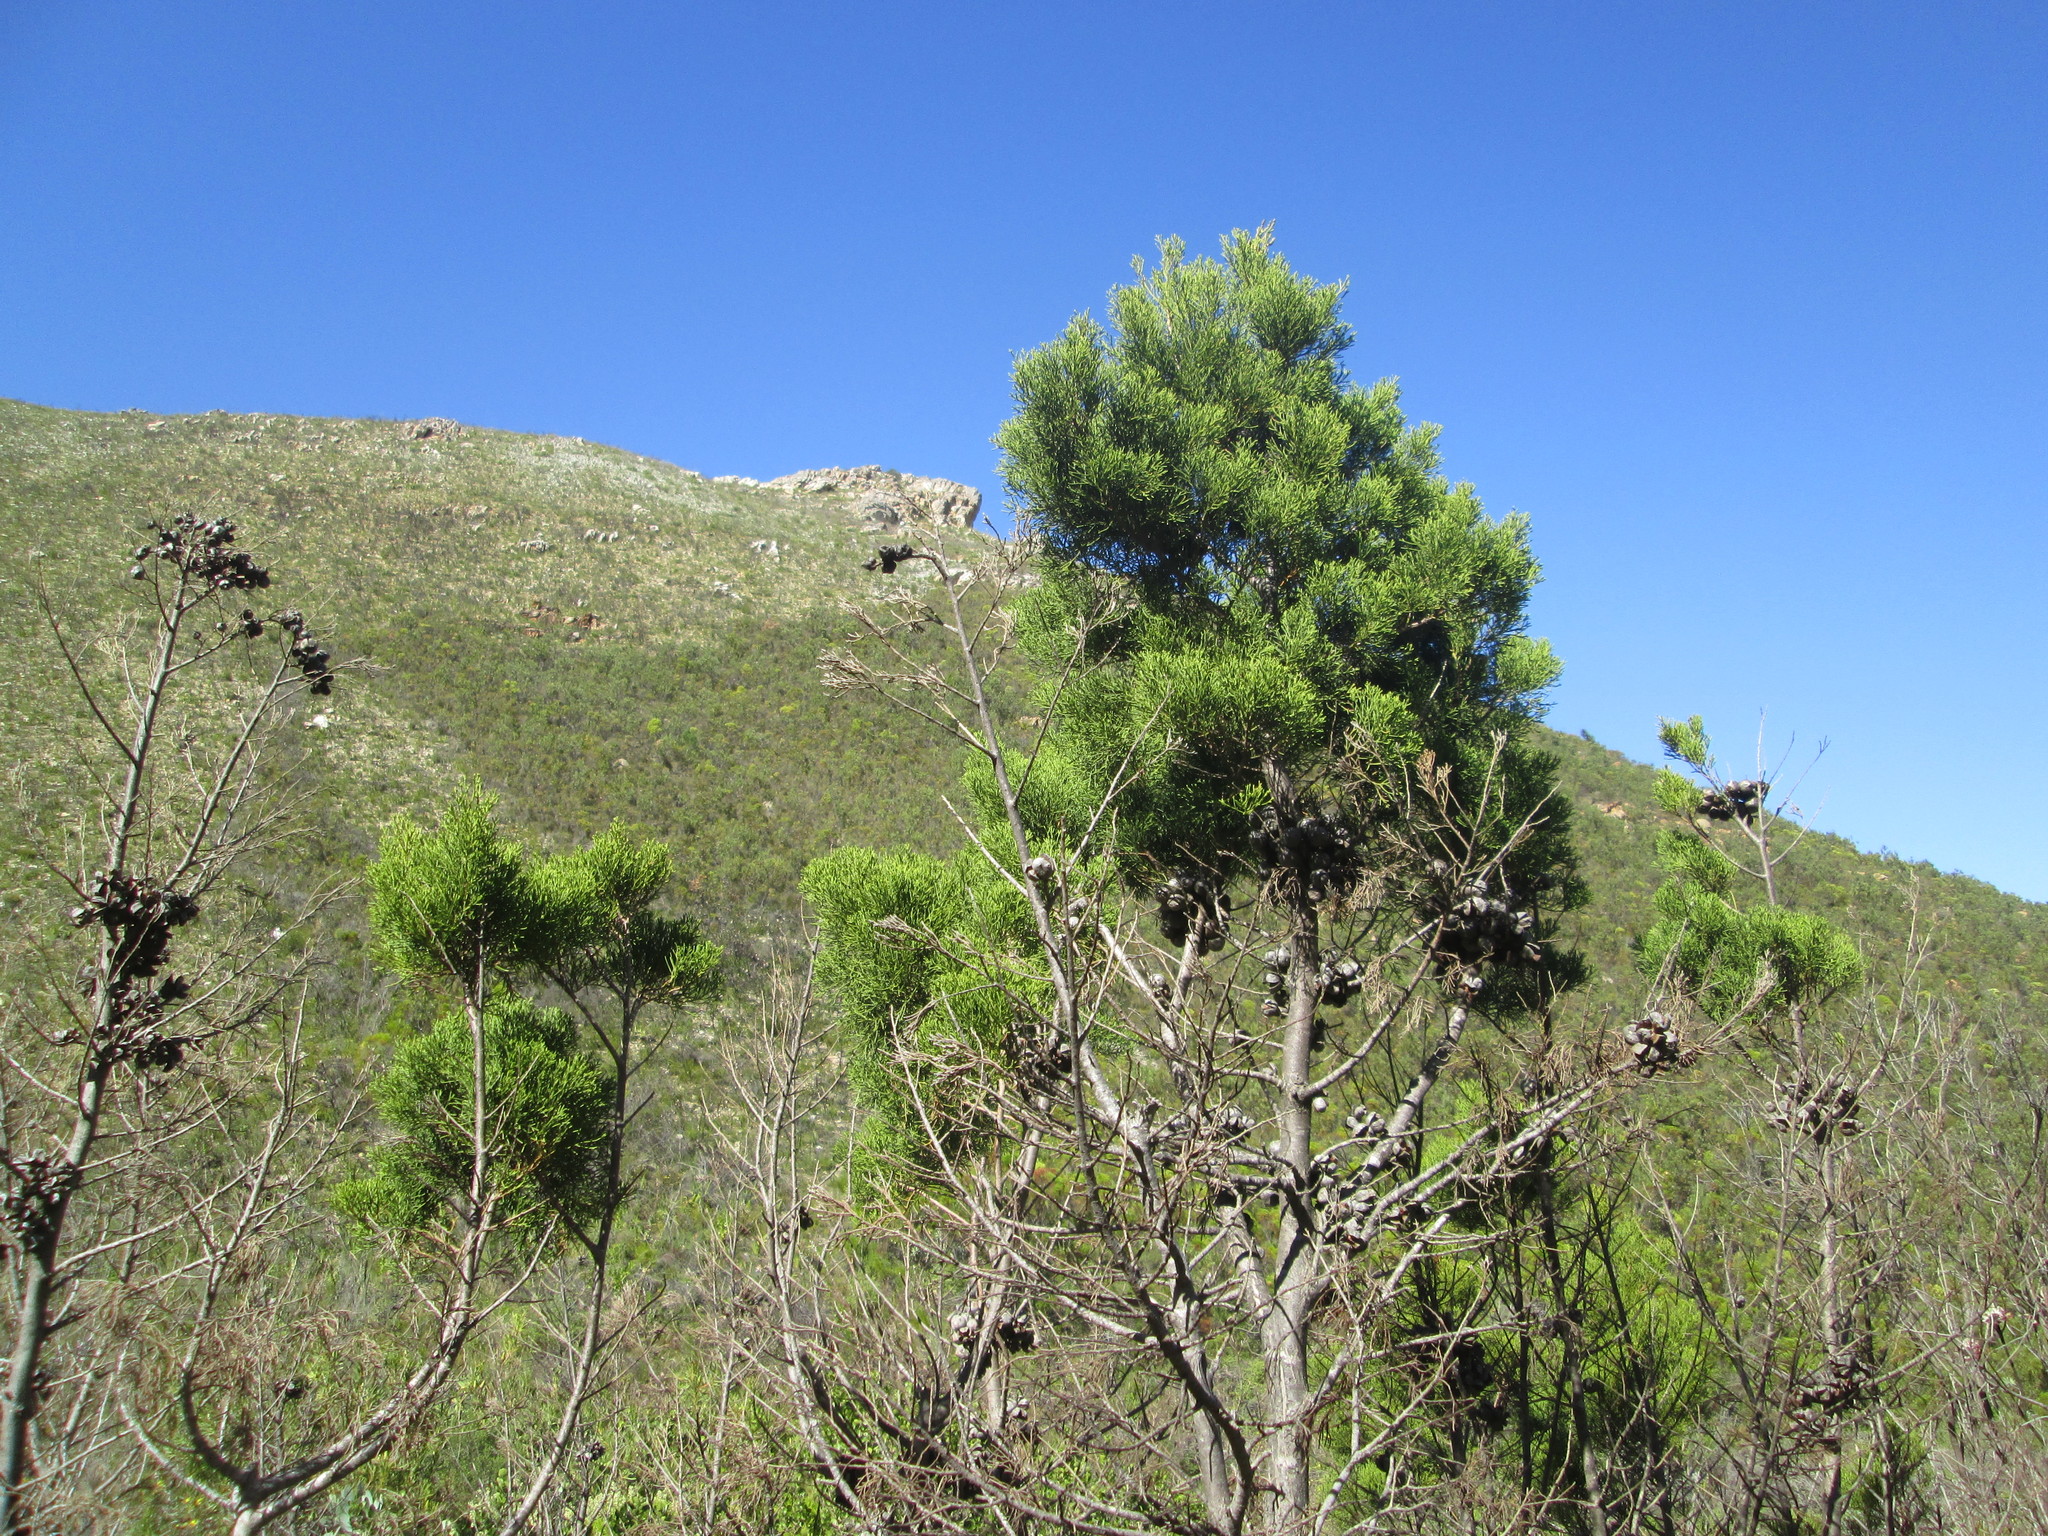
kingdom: Plantae
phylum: Tracheophyta
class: Pinopsida
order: Pinales
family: Cupressaceae
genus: Widdringtonia
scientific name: Widdringtonia nodiflora
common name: Cape cypress
